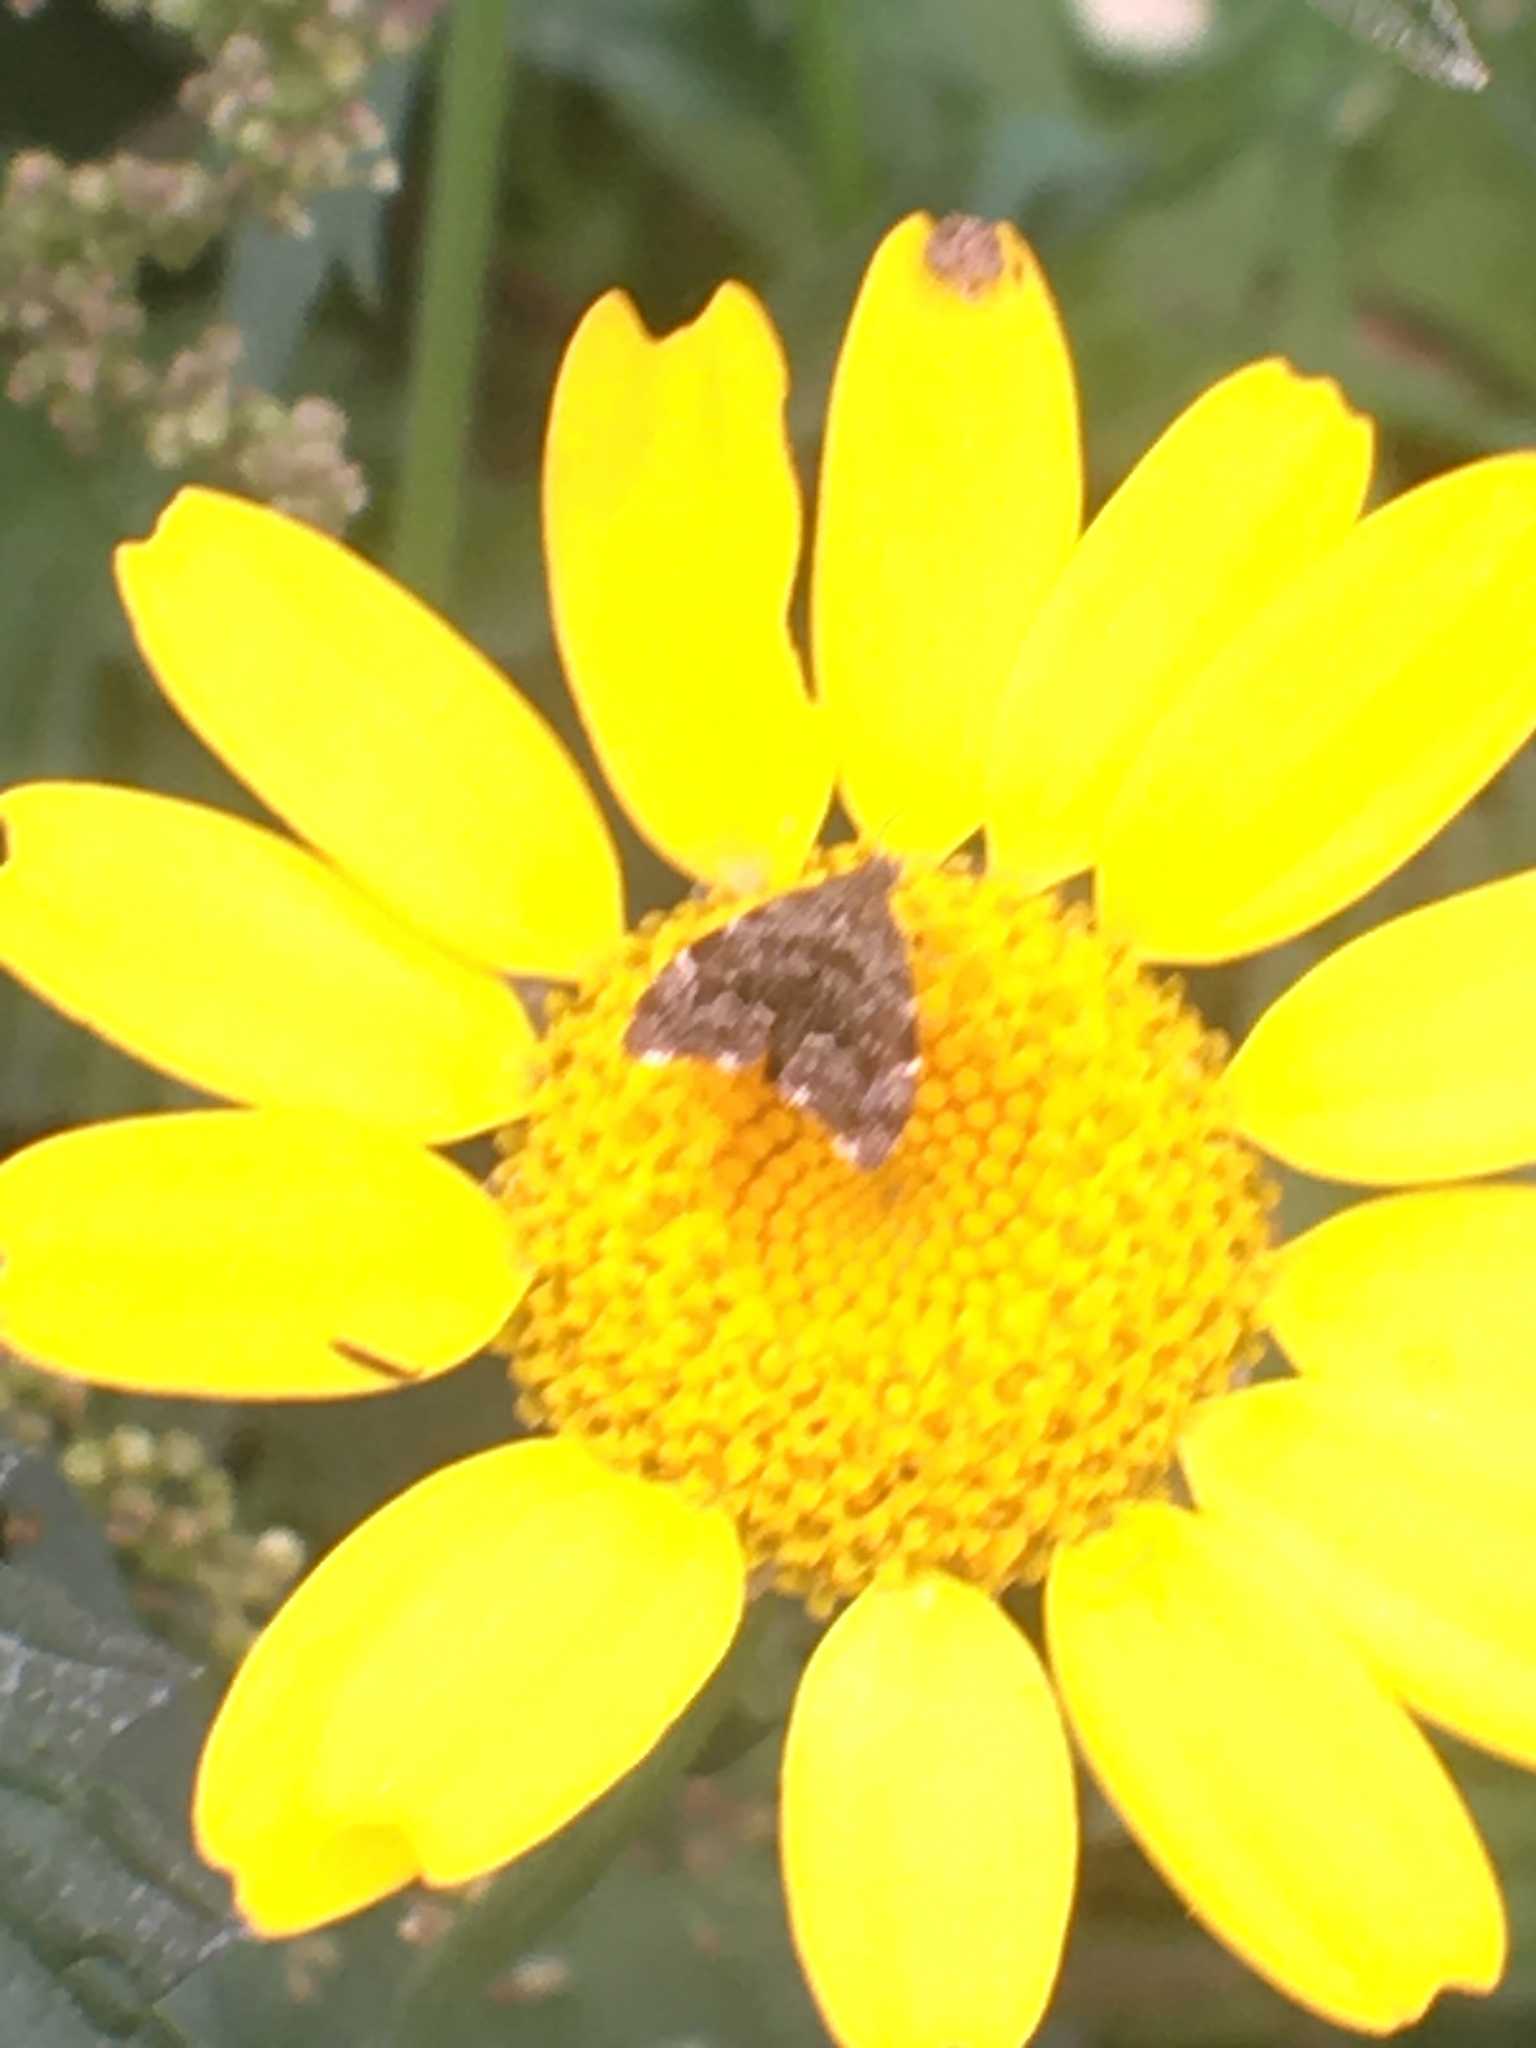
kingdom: Animalia
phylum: Arthropoda
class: Insecta
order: Lepidoptera
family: Choreutidae
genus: Anthophila
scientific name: Anthophila fabriciana
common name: Nettle-tap
